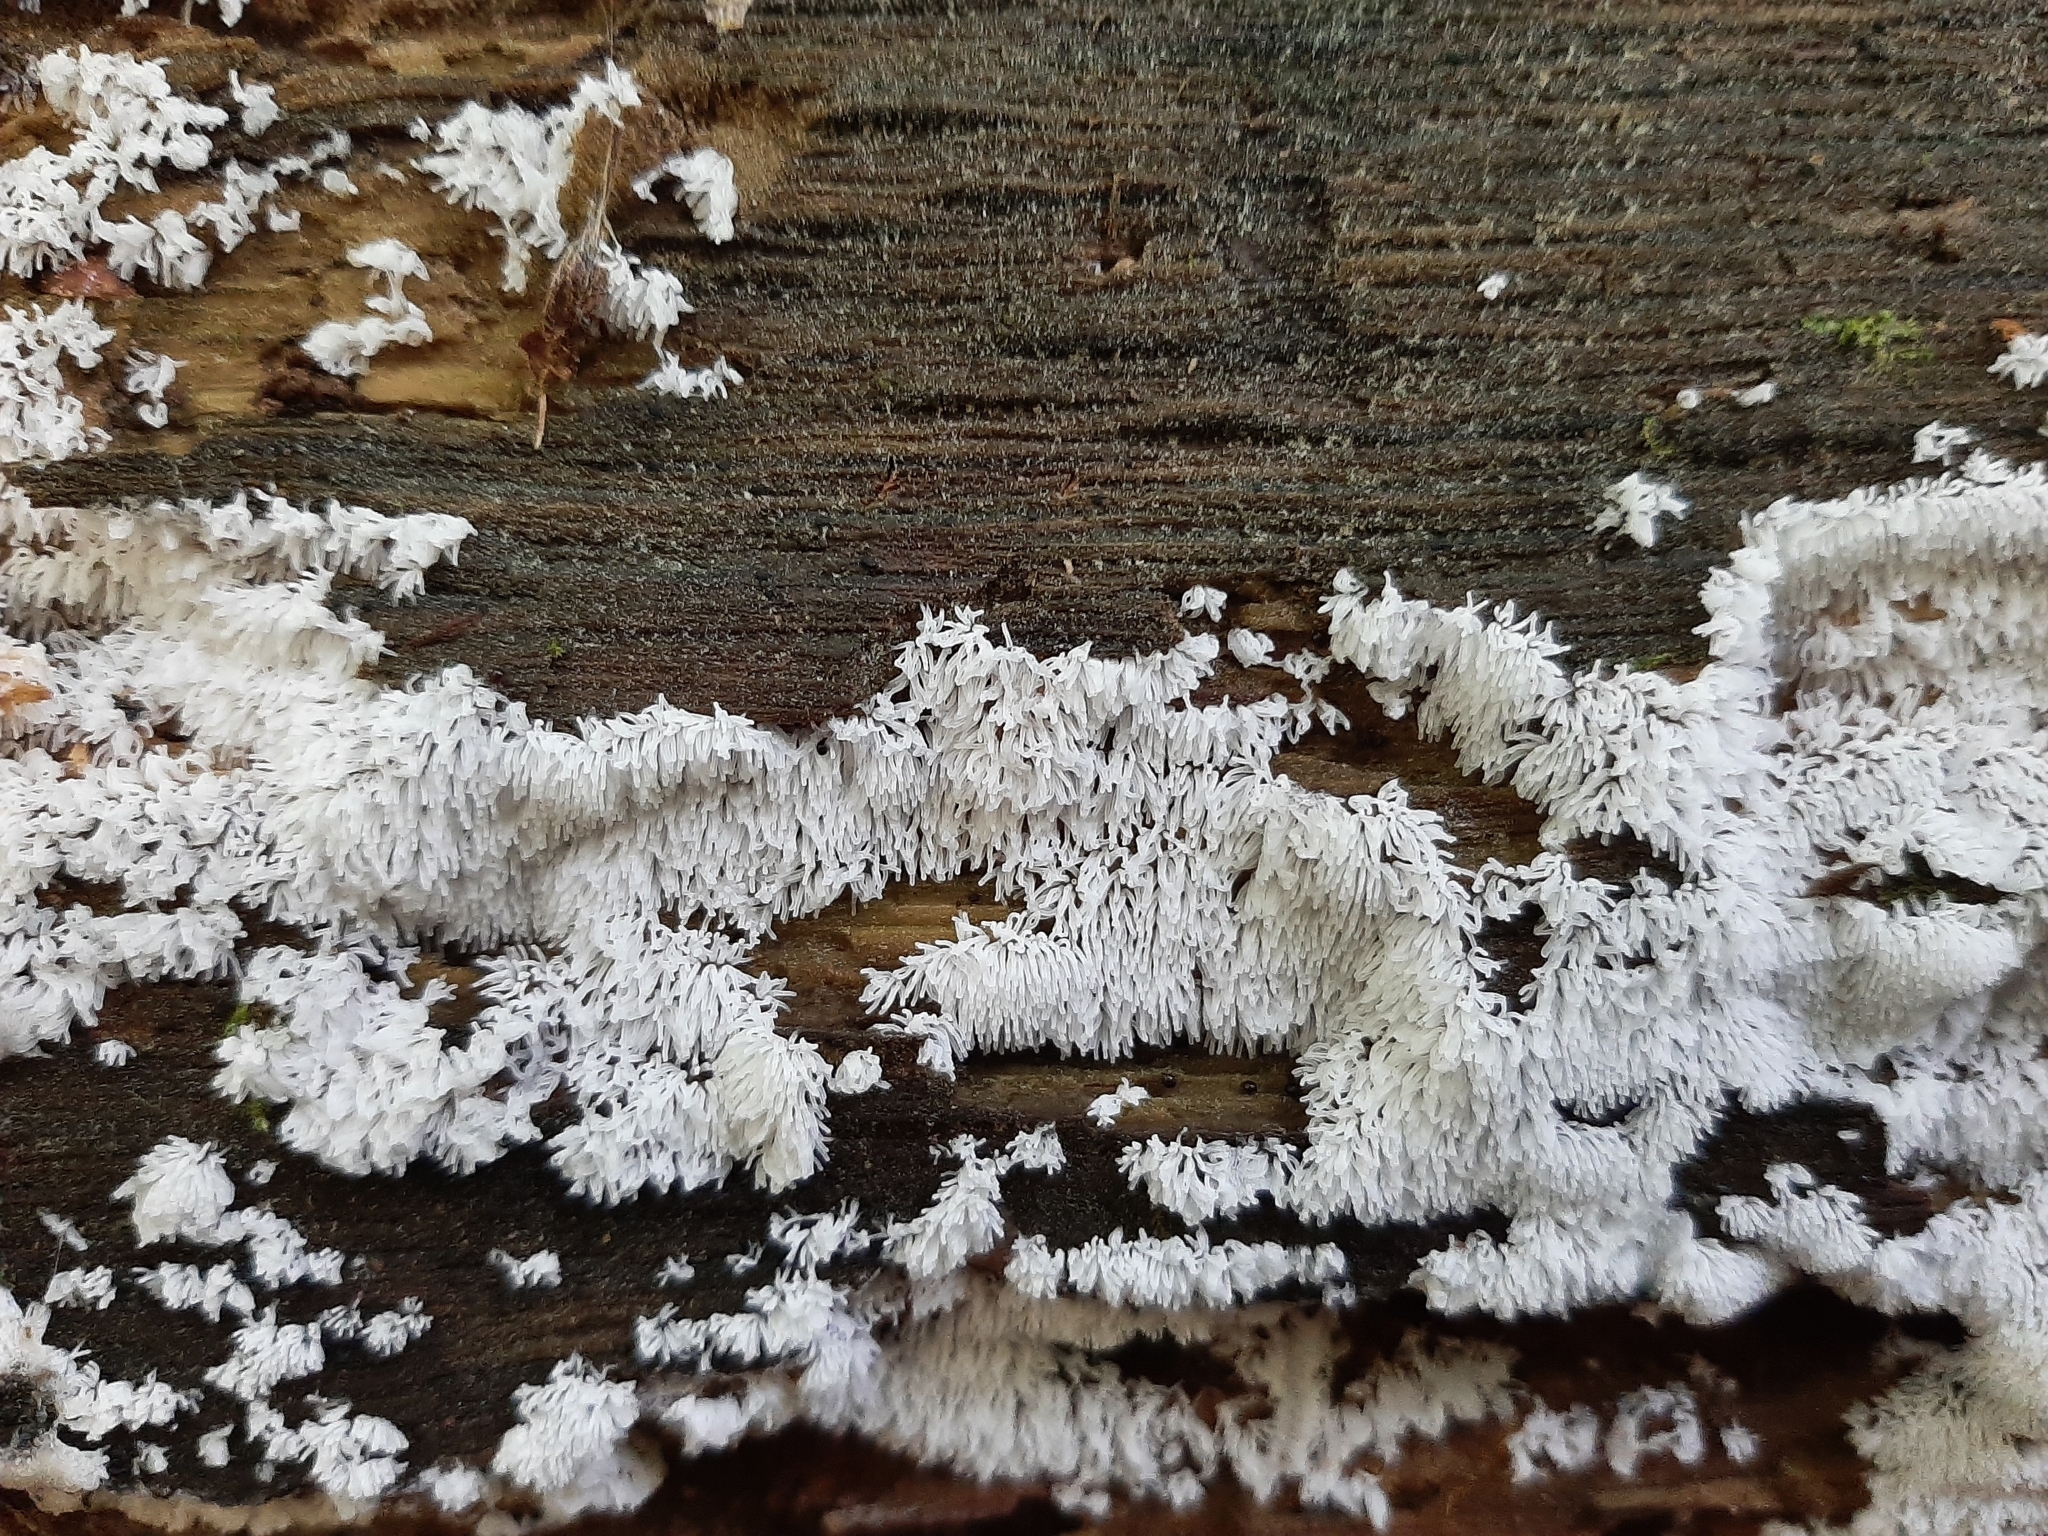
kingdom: Protozoa
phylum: Mycetozoa
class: Protosteliomycetes
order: Ceratiomyxales
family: Ceratiomyxaceae
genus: Ceratiomyxa
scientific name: Ceratiomyxa fruticulosa
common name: Honeycomb coral slime mold
